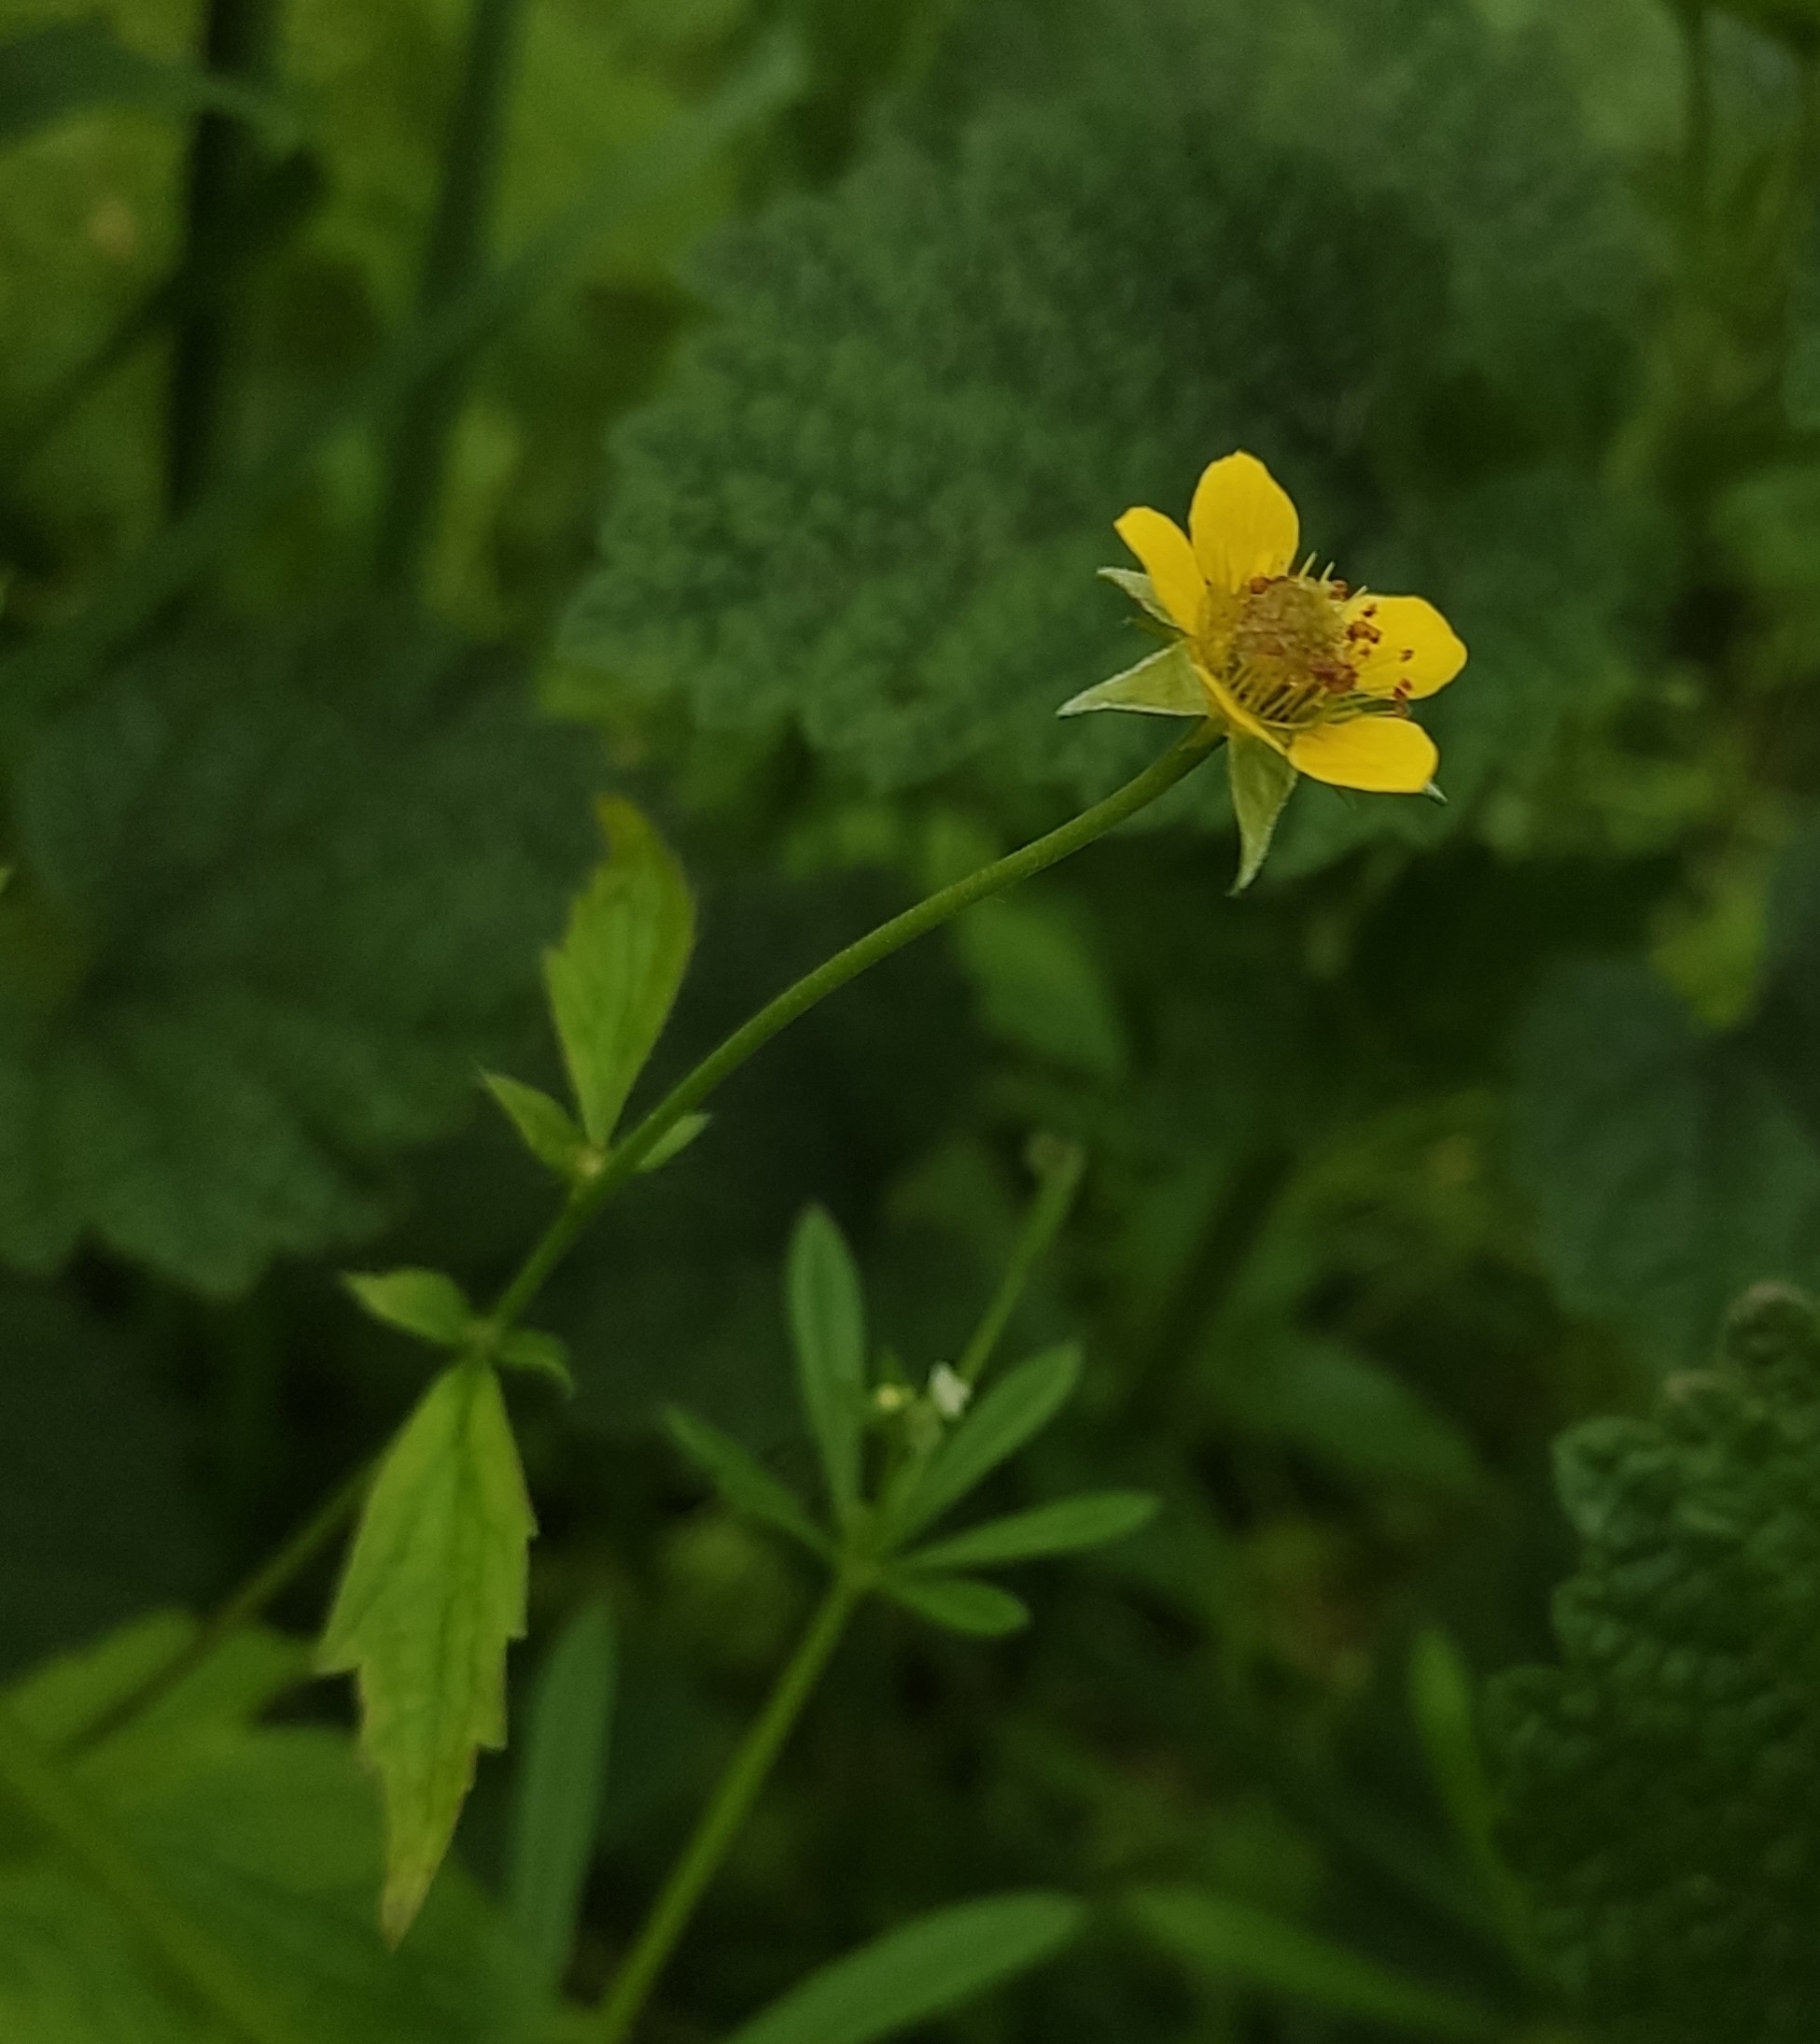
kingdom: Plantae
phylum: Tracheophyta
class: Magnoliopsida
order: Rosales
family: Rosaceae
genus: Geum
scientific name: Geum urbanum
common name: Wood avens
